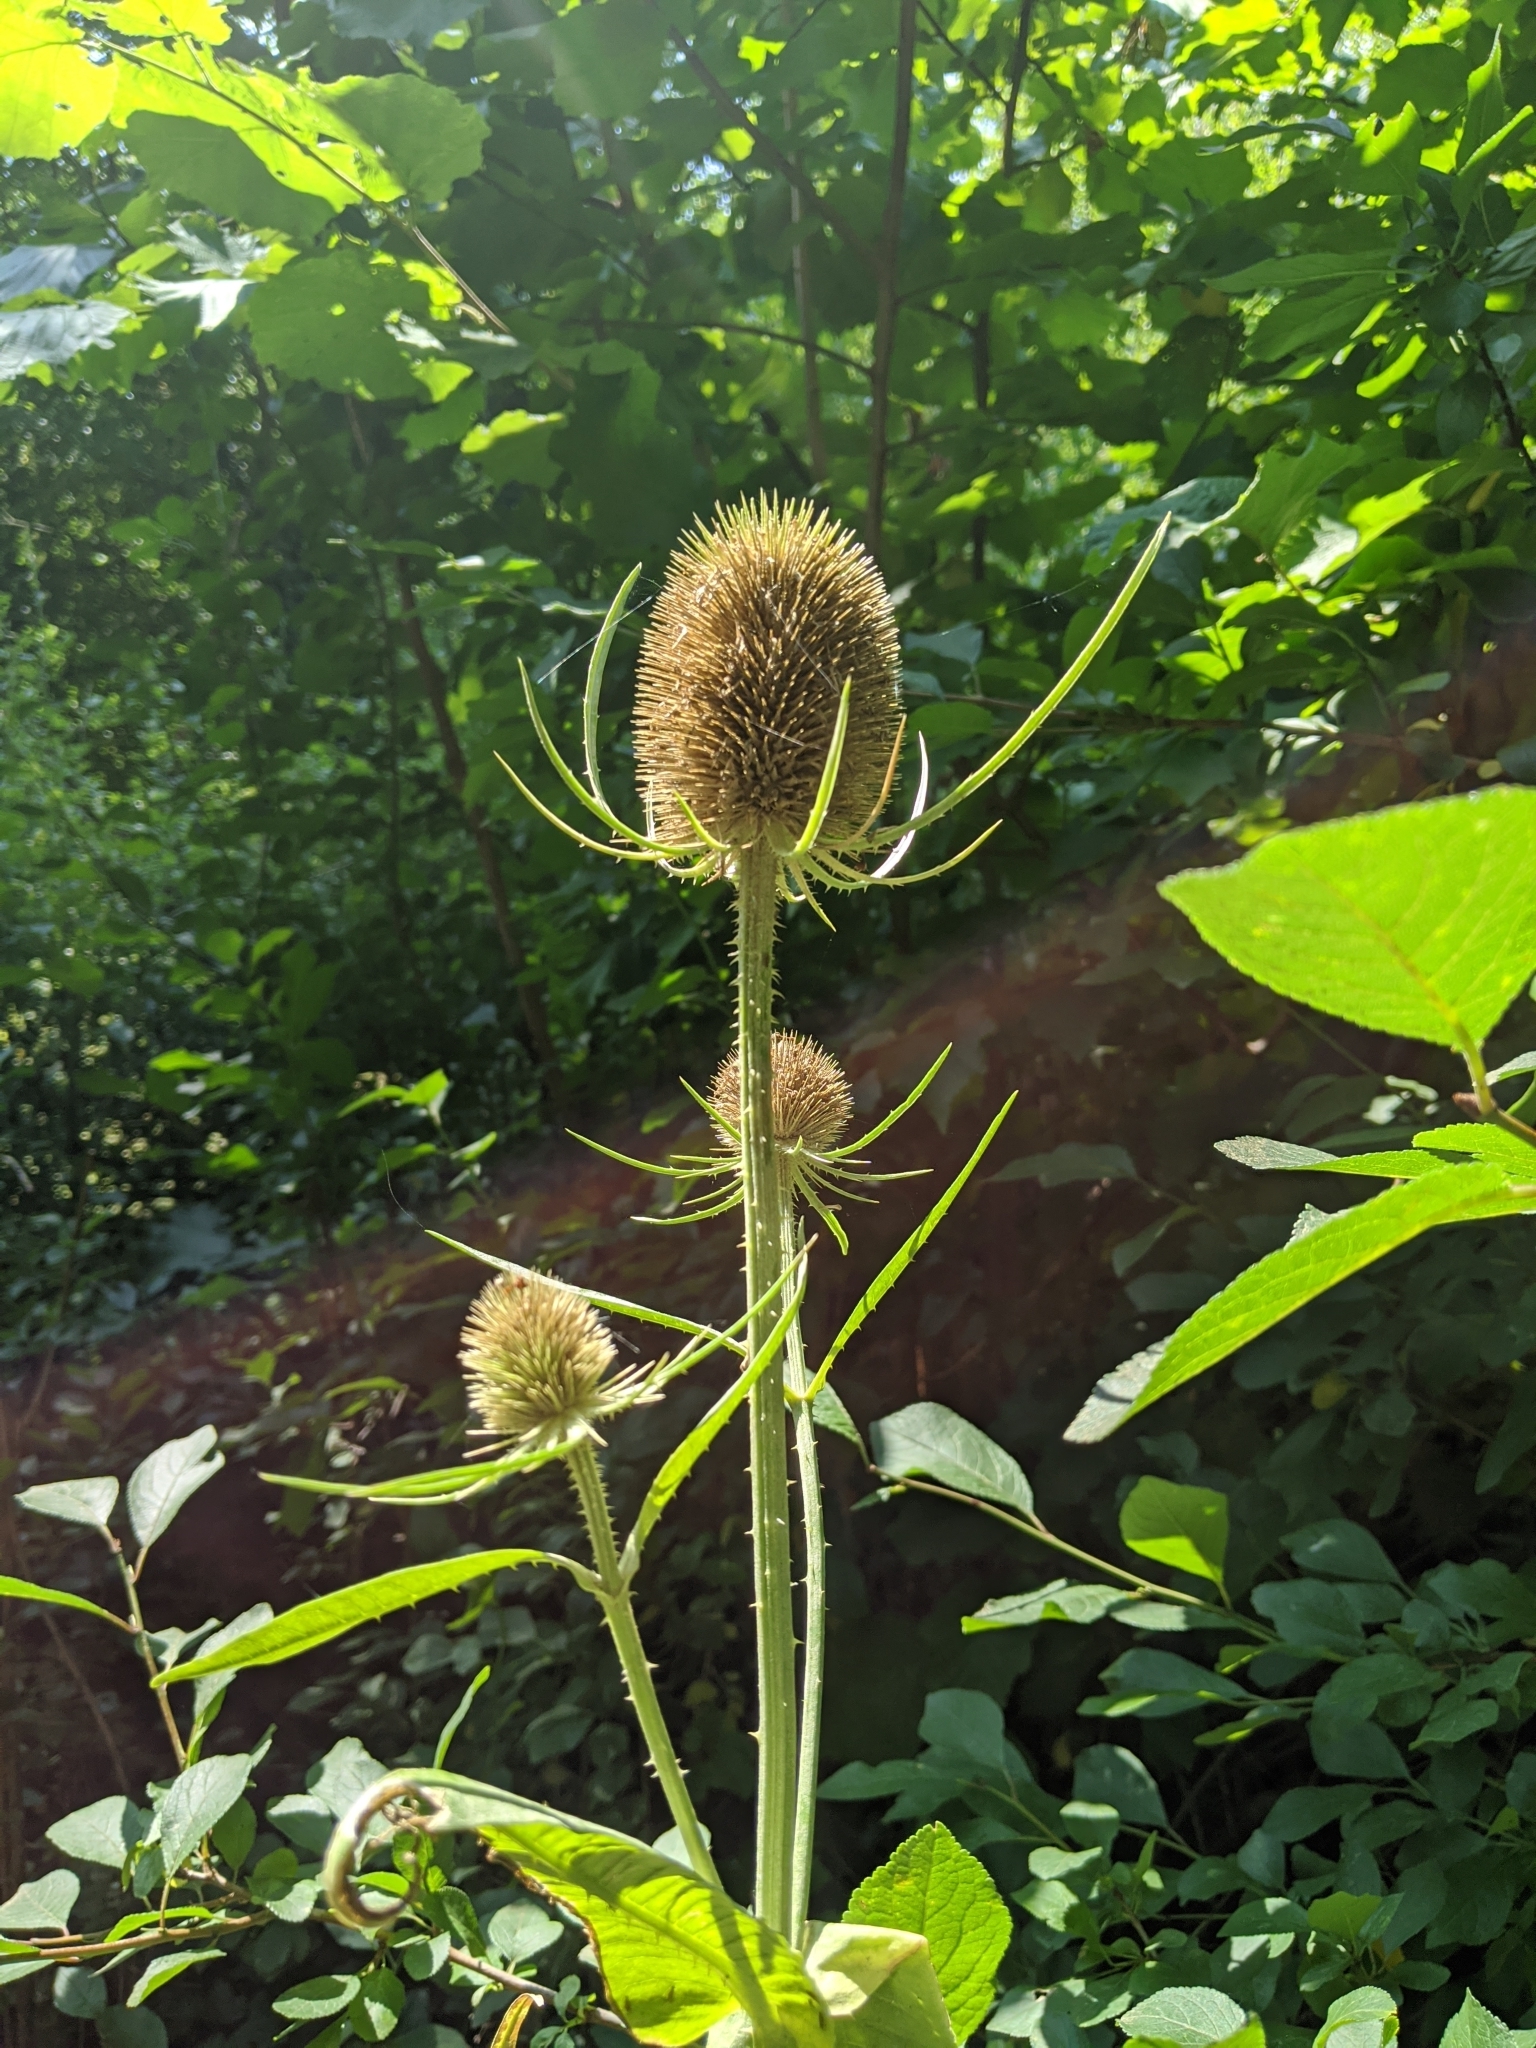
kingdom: Plantae
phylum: Tracheophyta
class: Magnoliopsida
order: Dipsacales
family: Caprifoliaceae
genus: Dipsacus
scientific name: Dipsacus fullonum
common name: Teasel
